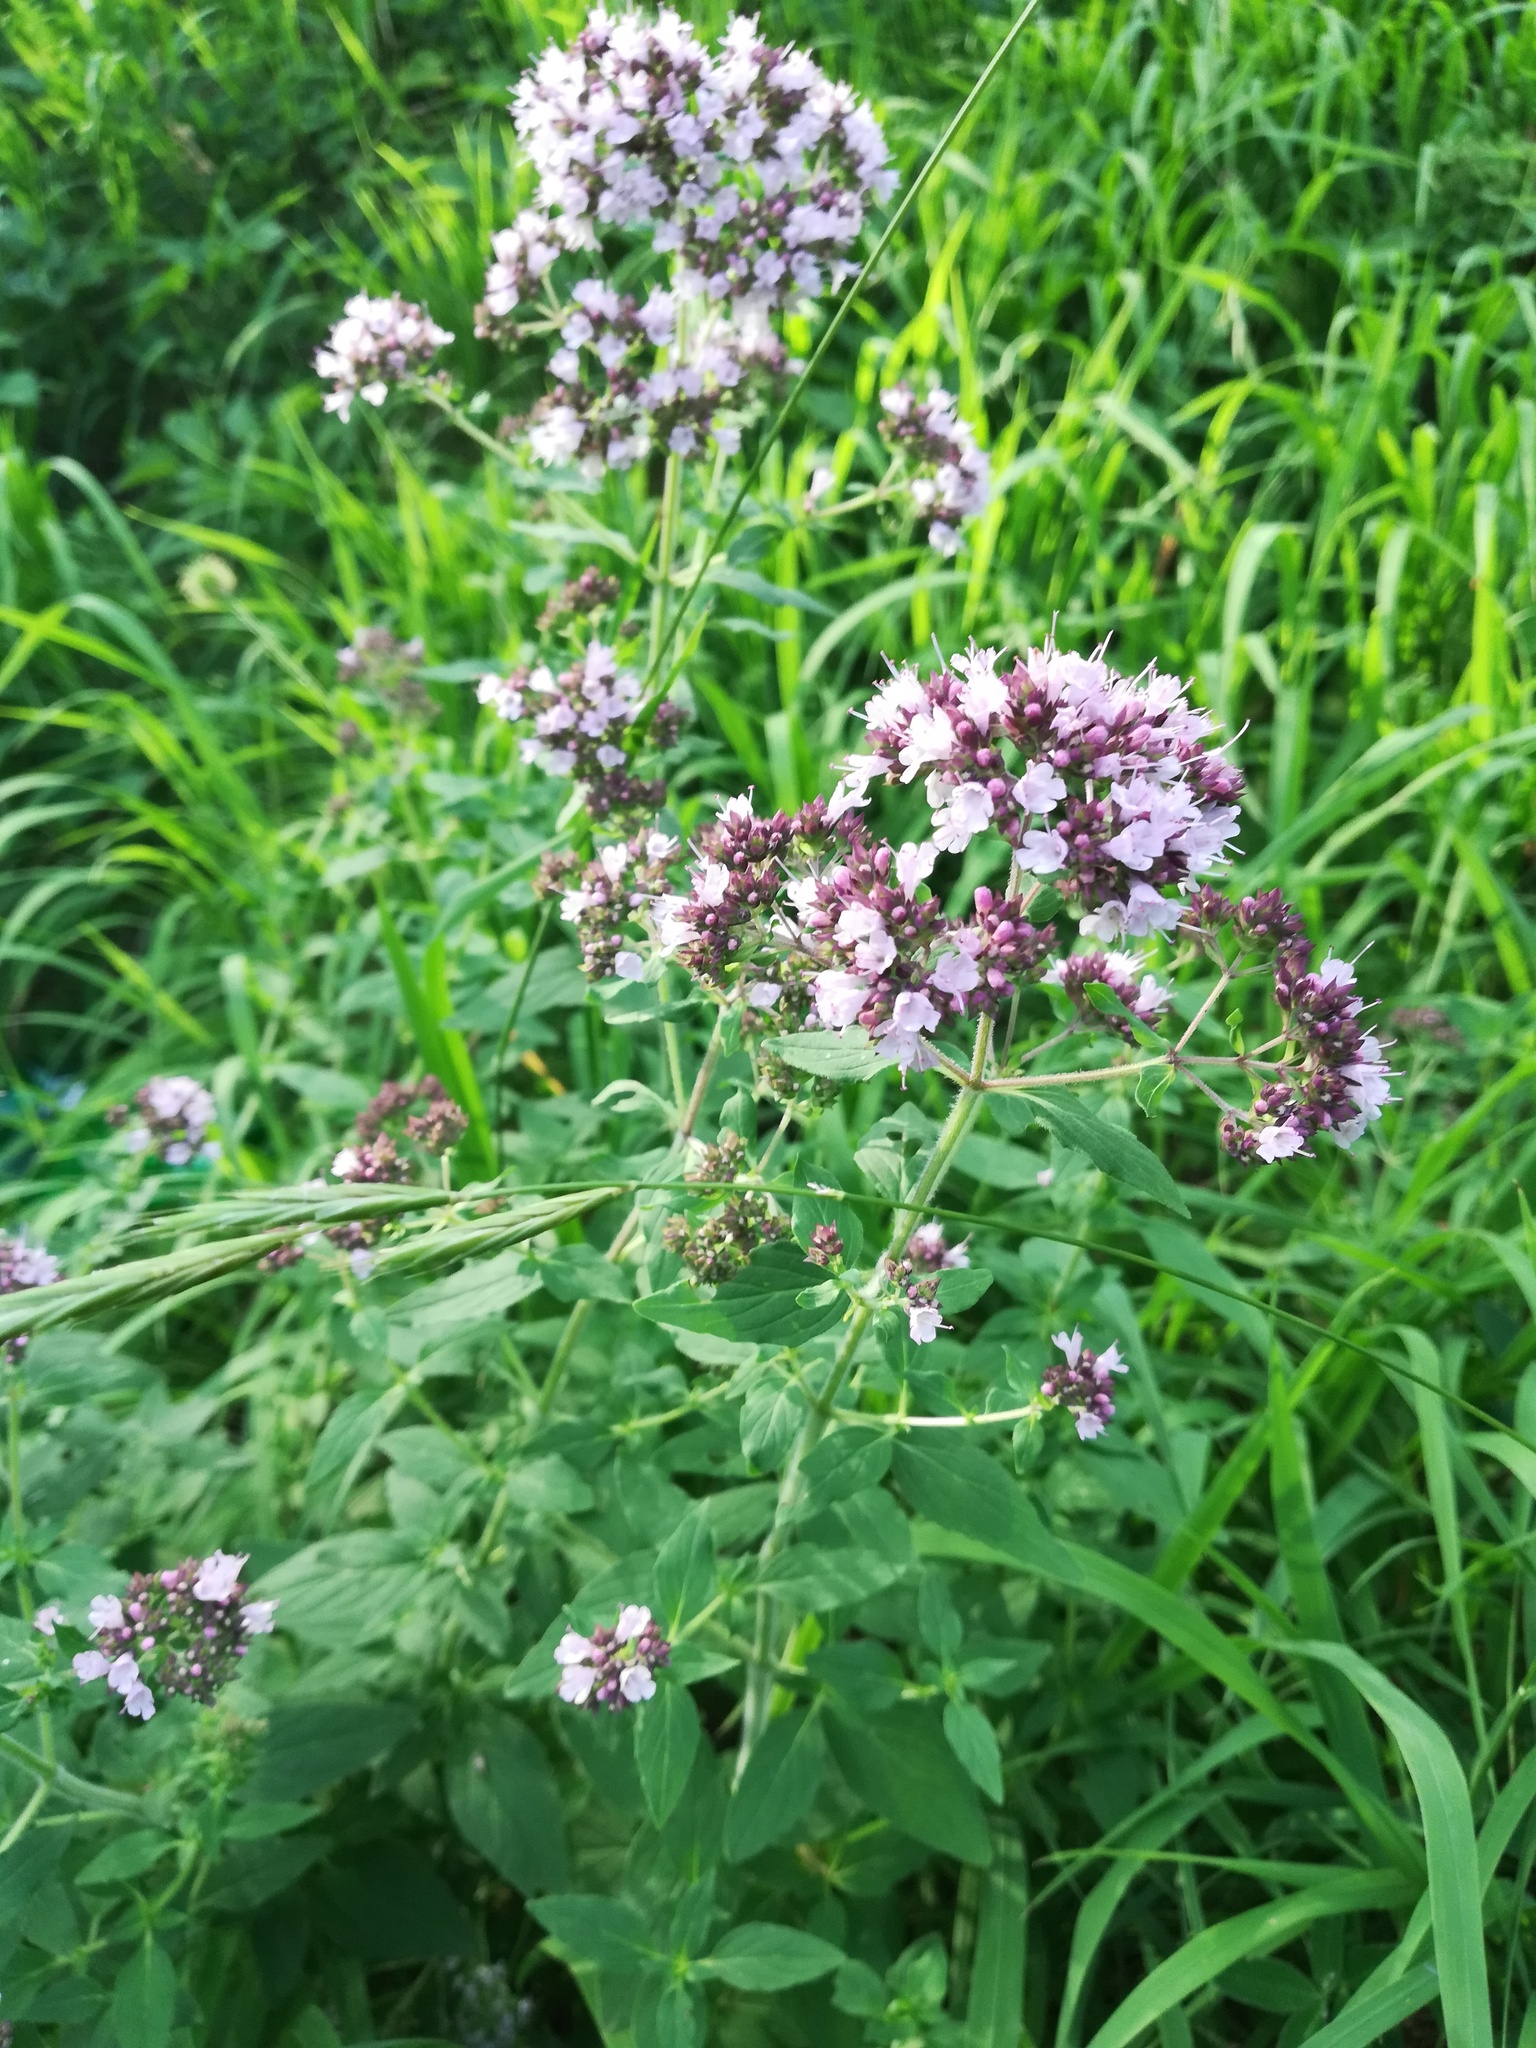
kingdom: Plantae
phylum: Tracheophyta
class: Magnoliopsida
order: Lamiales
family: Lamiaceae
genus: Origanum
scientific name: Origanum vulgare
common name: Wild marjoram
